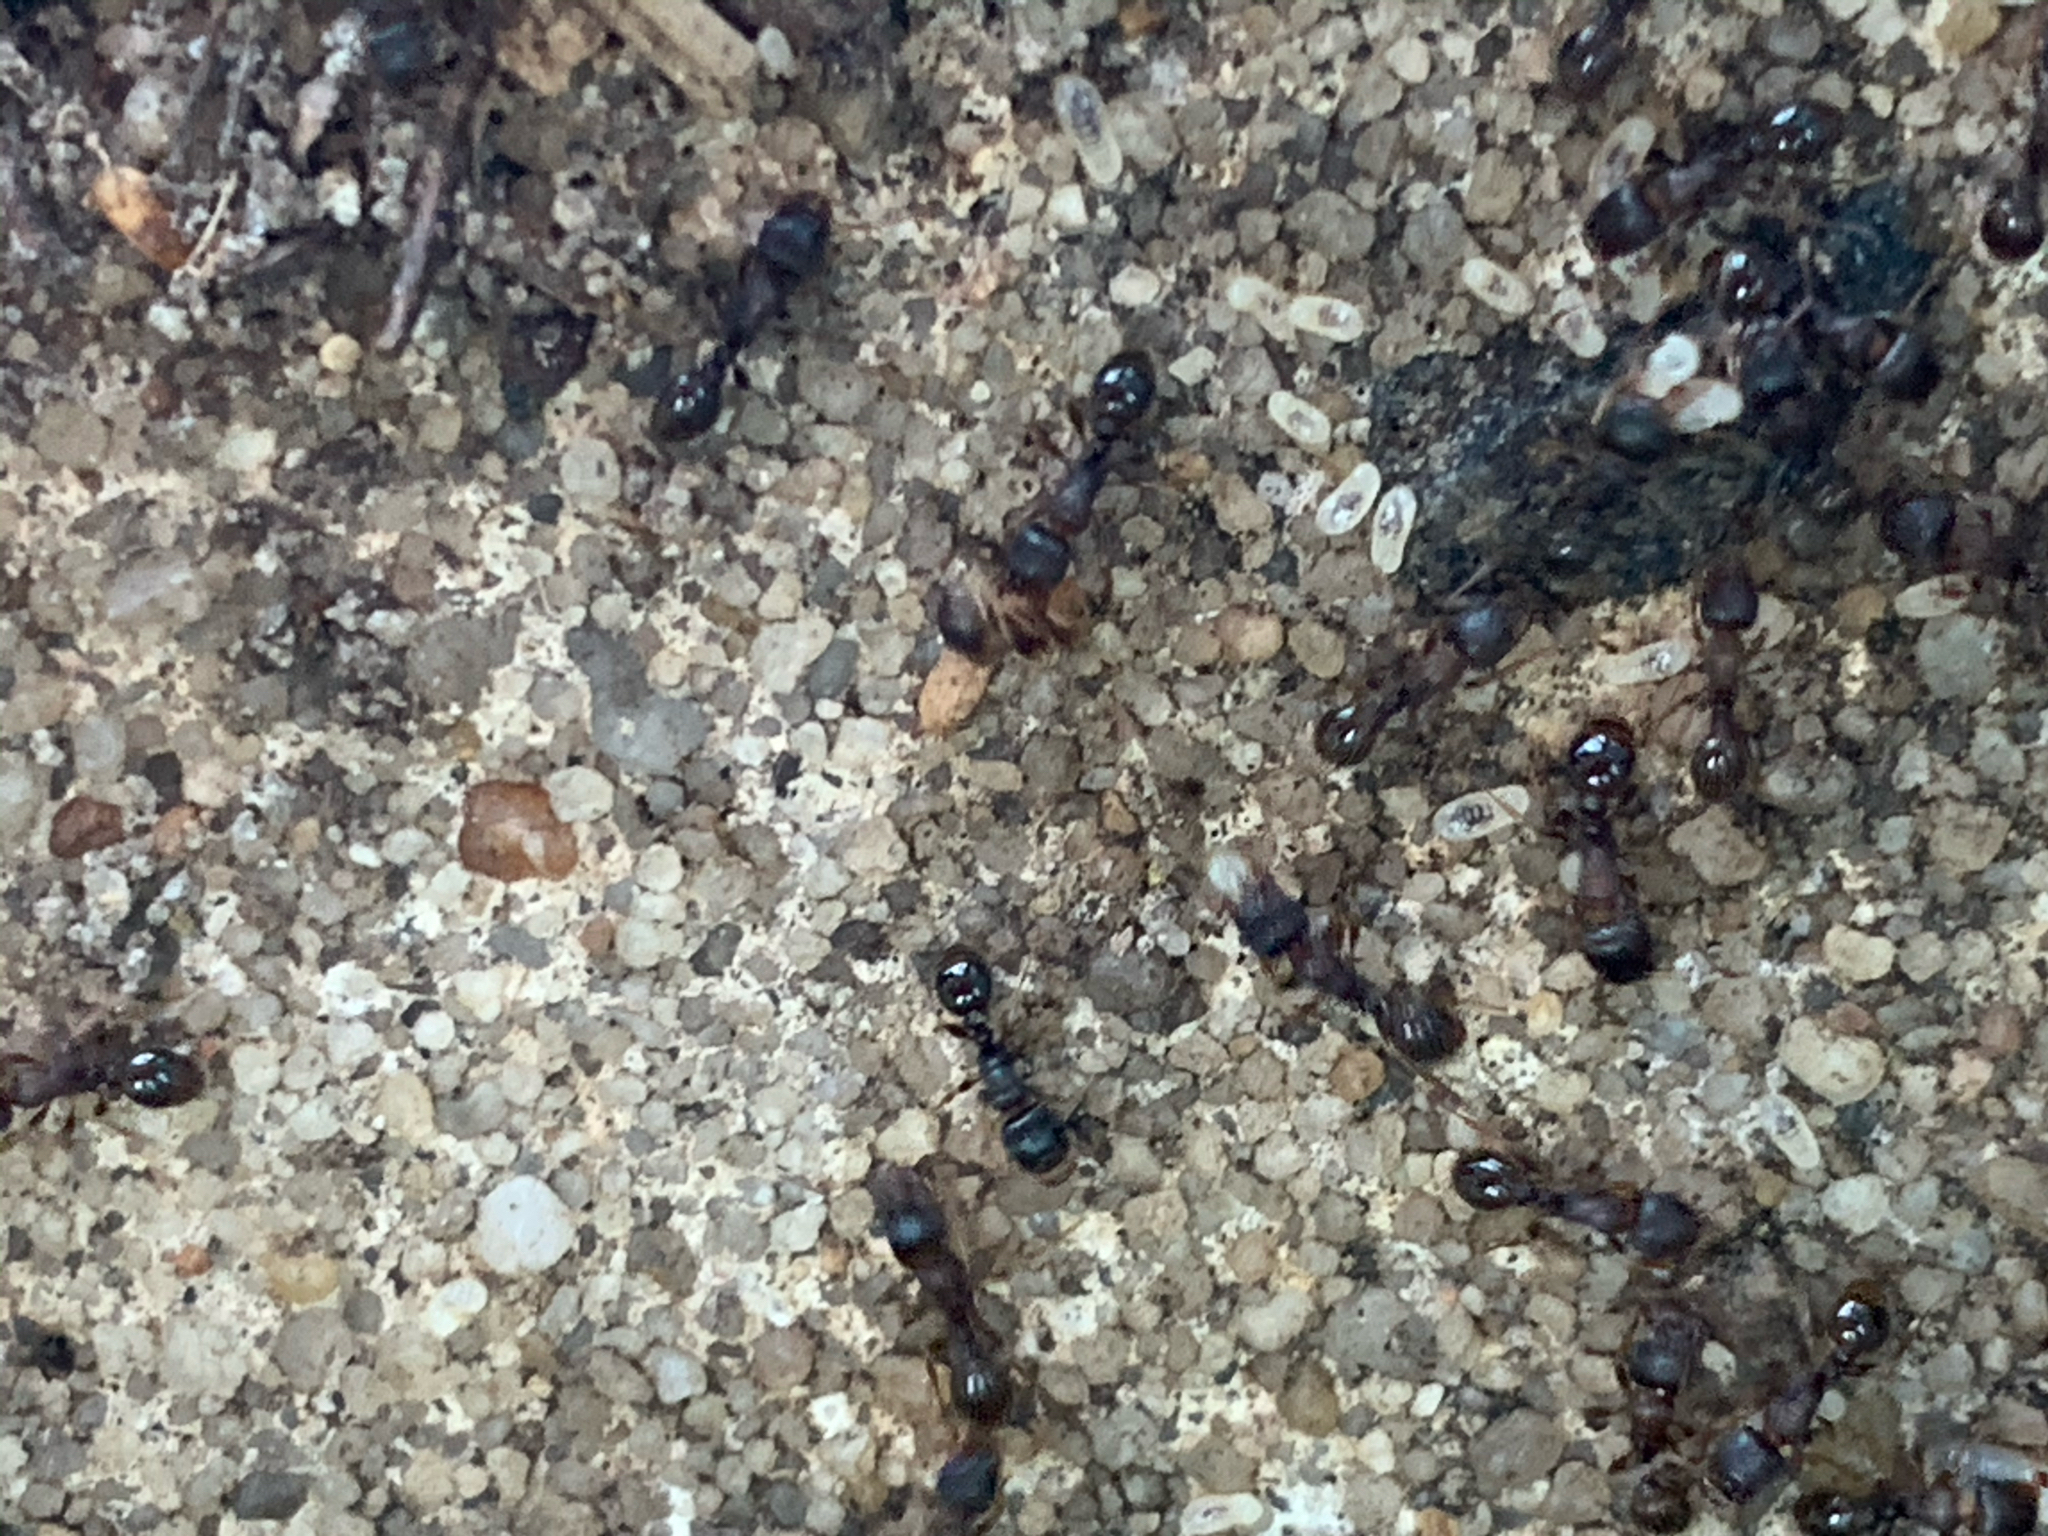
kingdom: Animalia
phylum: Arthropoda
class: Insecta
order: Hymenoptera
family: Formicidae
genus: Tetramorium
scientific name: Tetramorium immigrans
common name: Pavement ant
